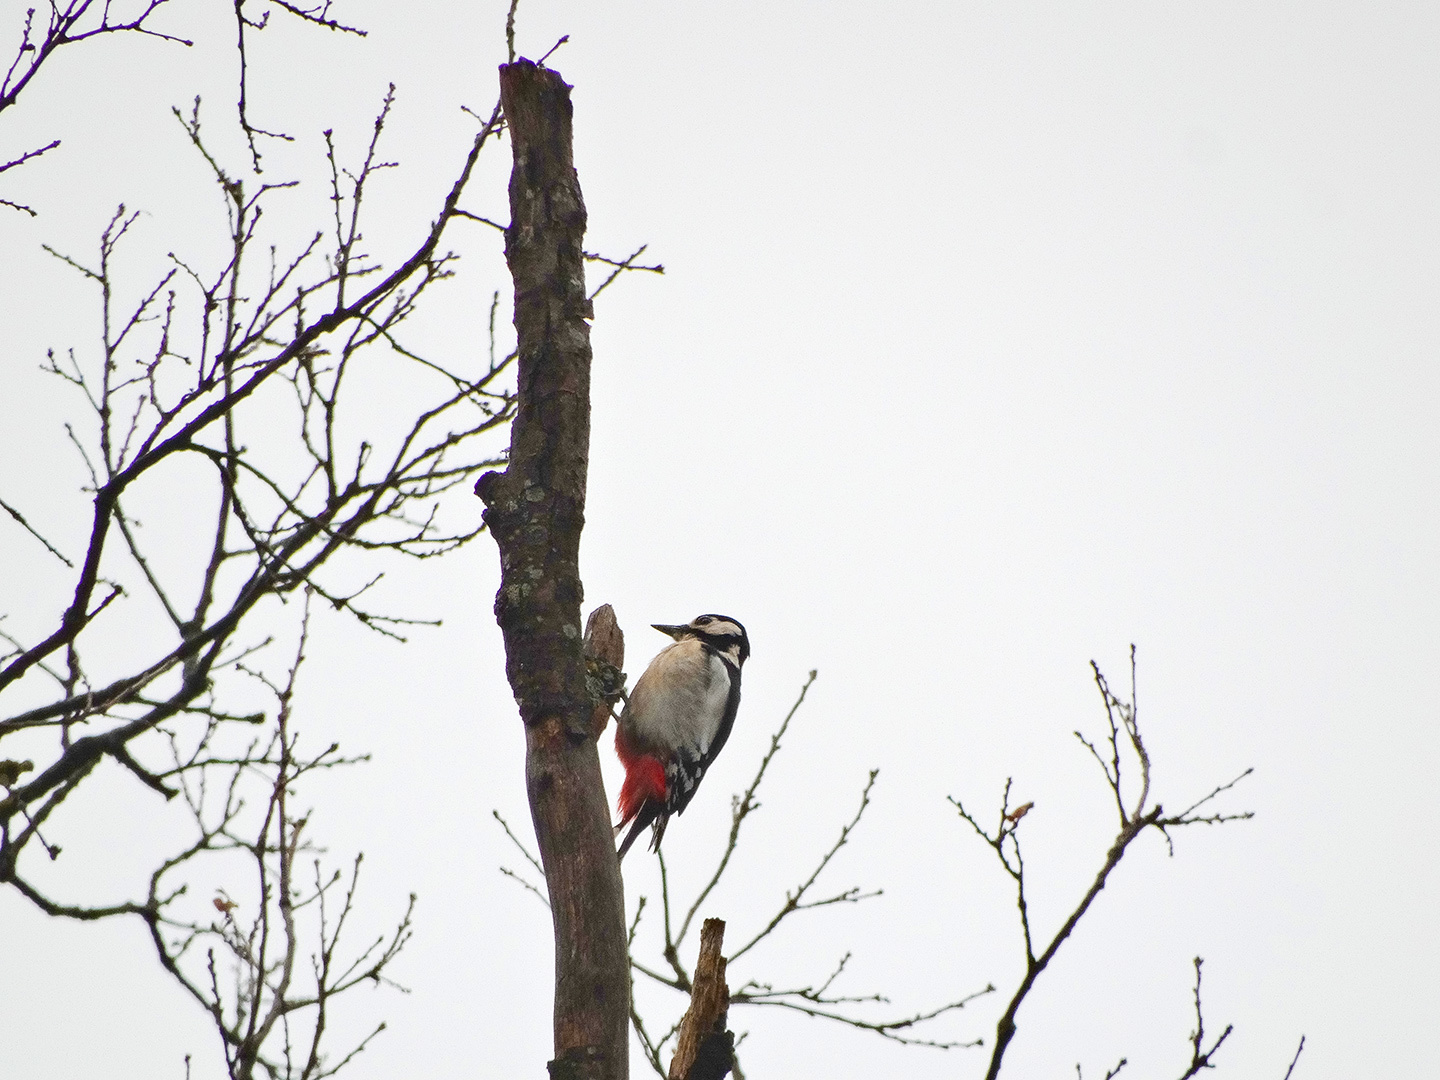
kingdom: Animalia
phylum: Chordata
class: Aves
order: Piciformes
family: Picidae
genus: Dendrocopos
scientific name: Dendrocopos major
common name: Great spotted woodpecker
